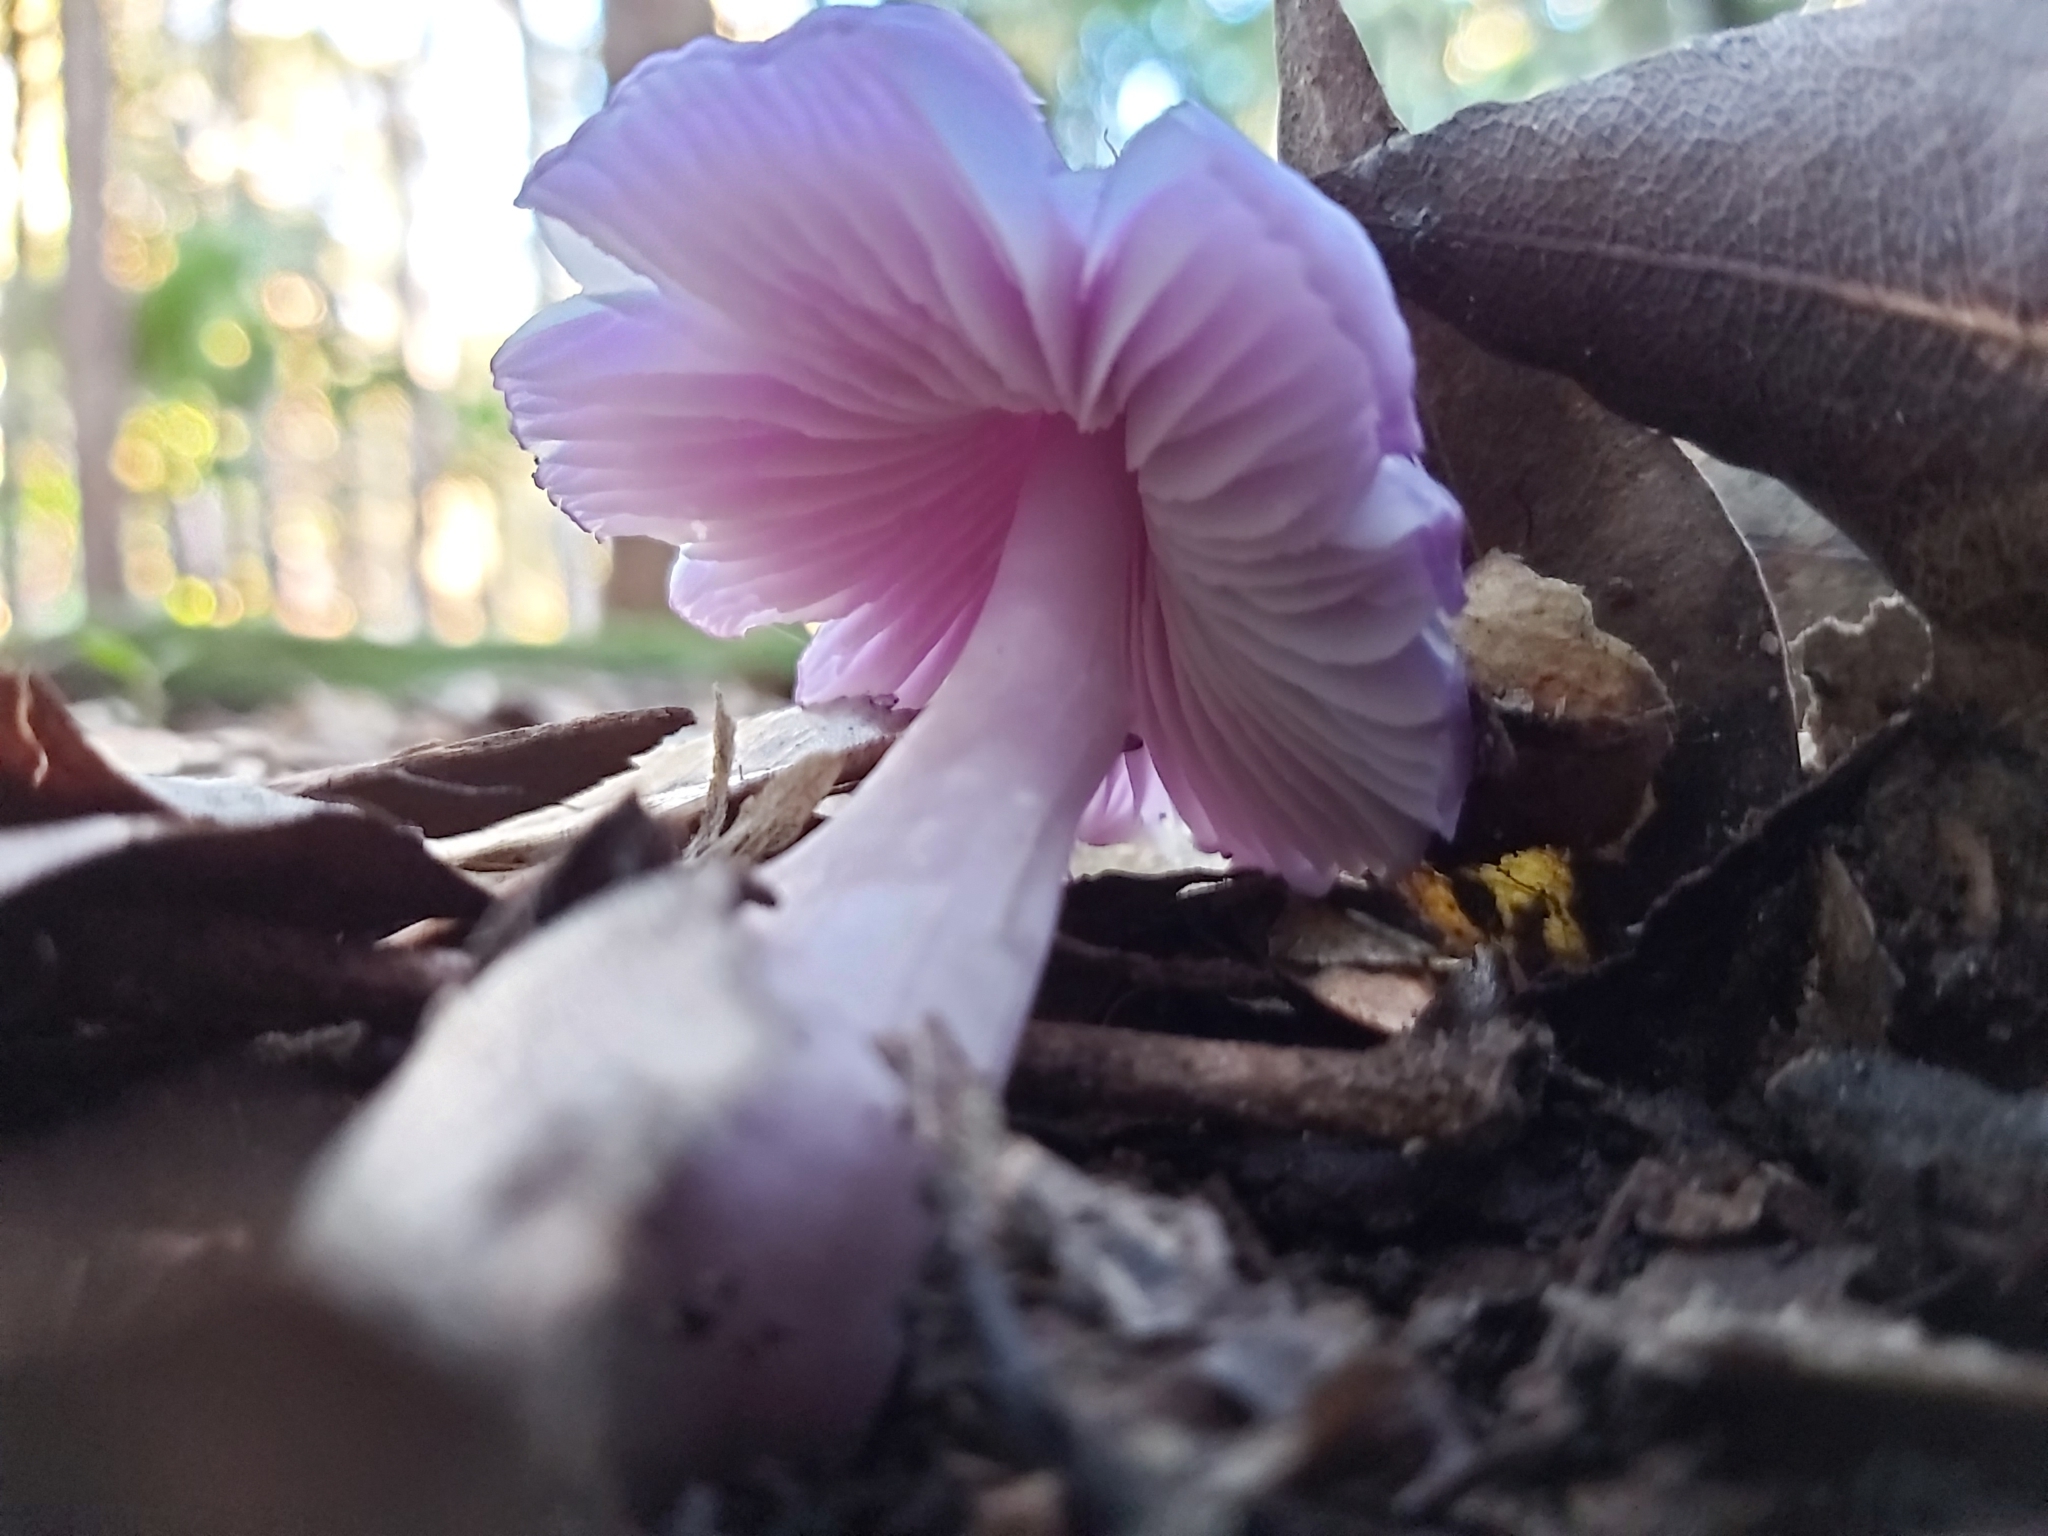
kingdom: Fungi
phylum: Basidiomycota
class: Agaricomycetes
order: Agaricales
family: Hygrophoraceae
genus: Porpolomopsis
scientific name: Porpolomopsis lewelliniae
